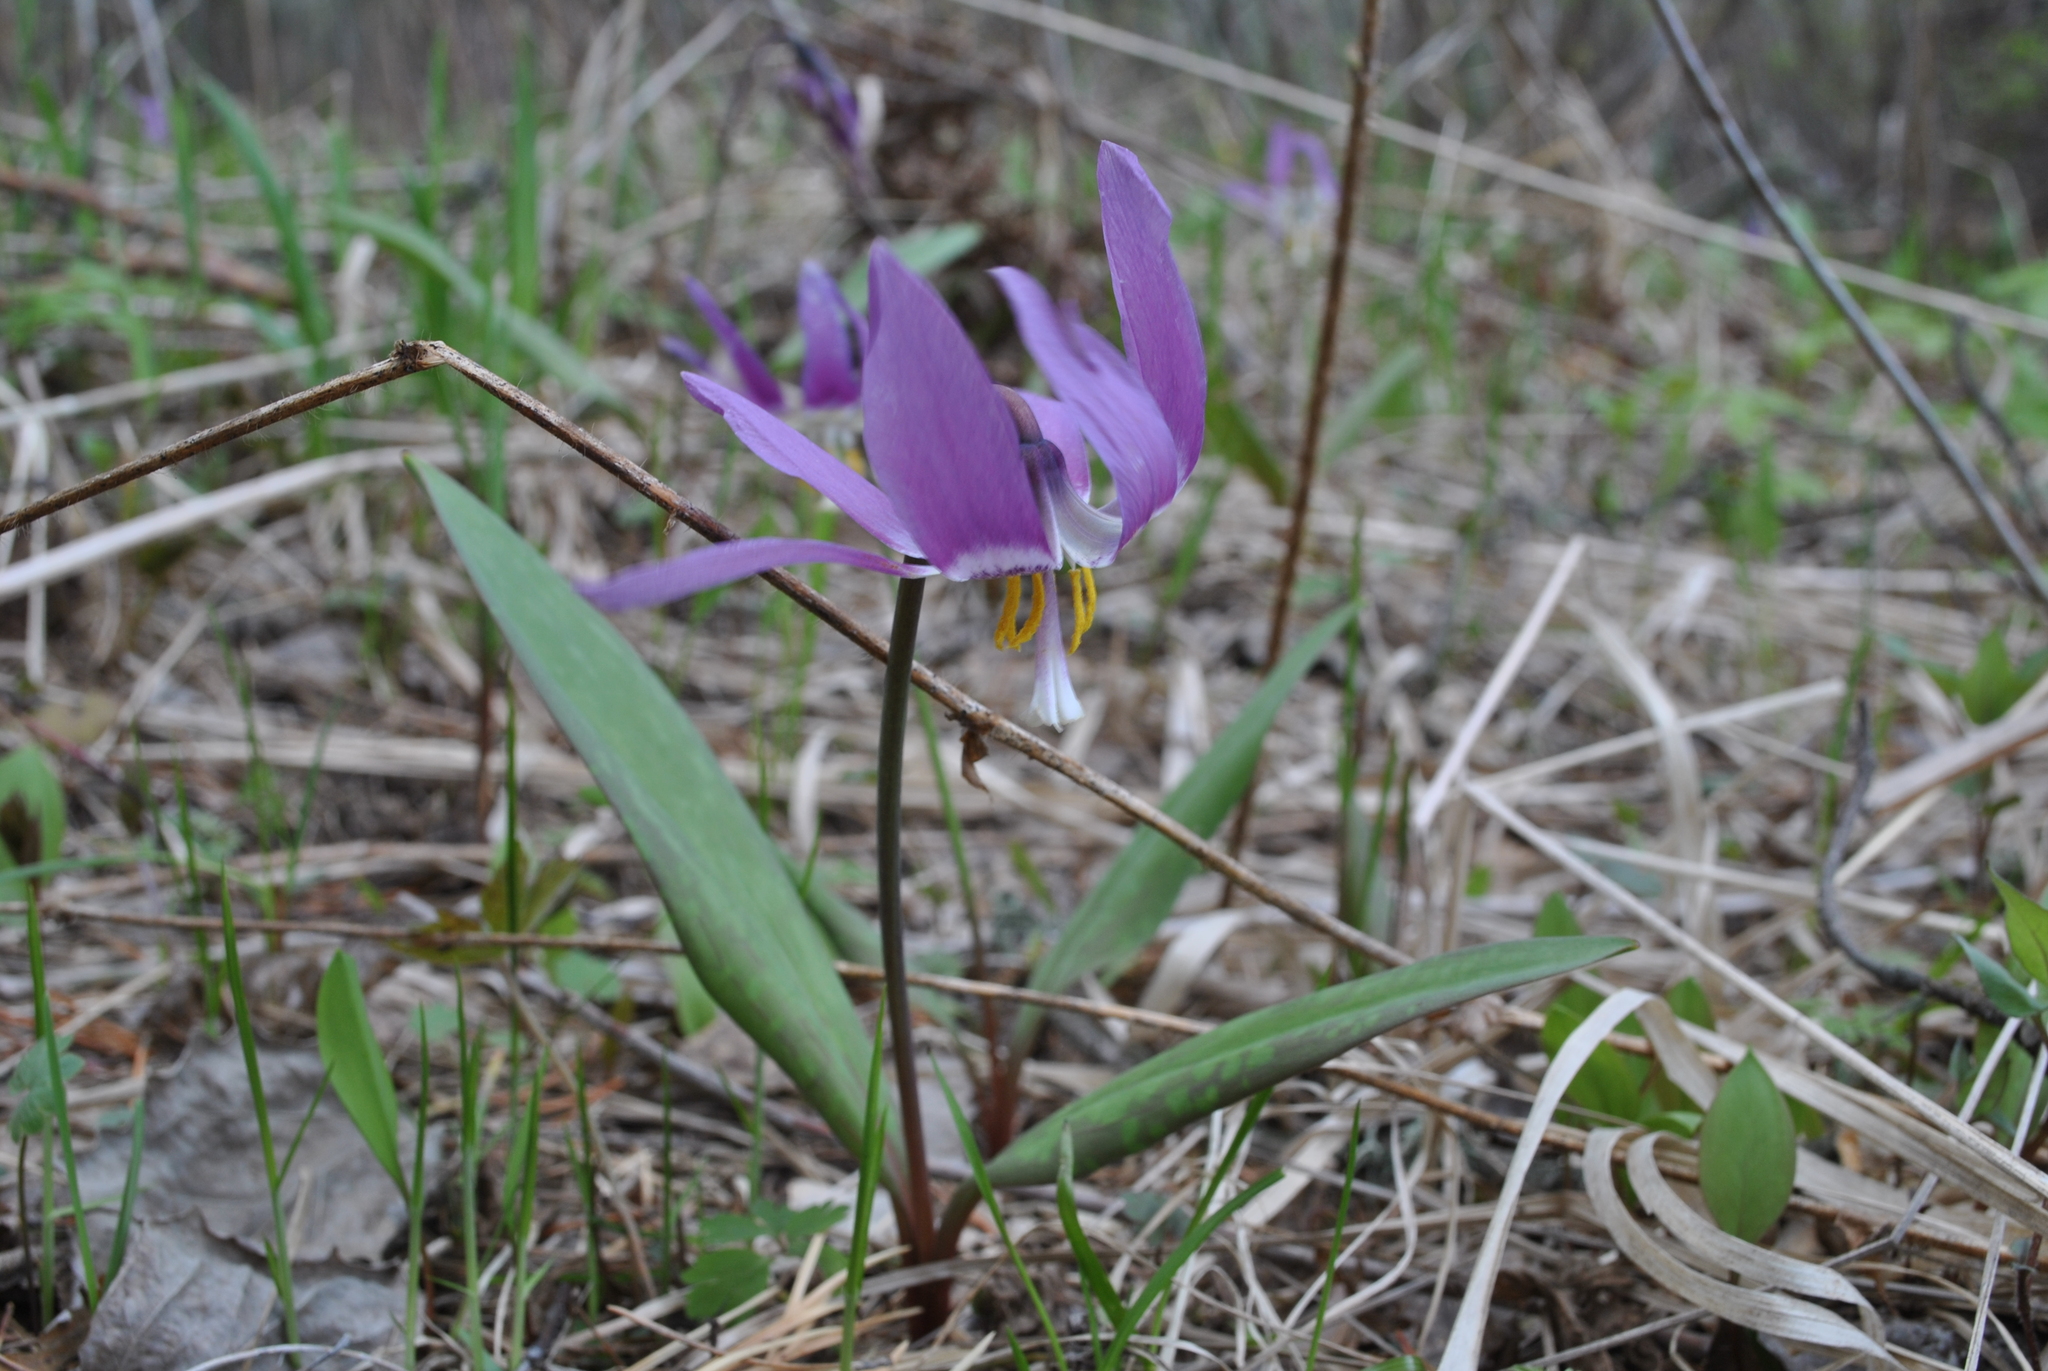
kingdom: Plantae
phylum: Tracheophyta
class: Liliopsida
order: Liliales
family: Liliaceae
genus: Erythronium
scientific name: Erythronium sibiricum
